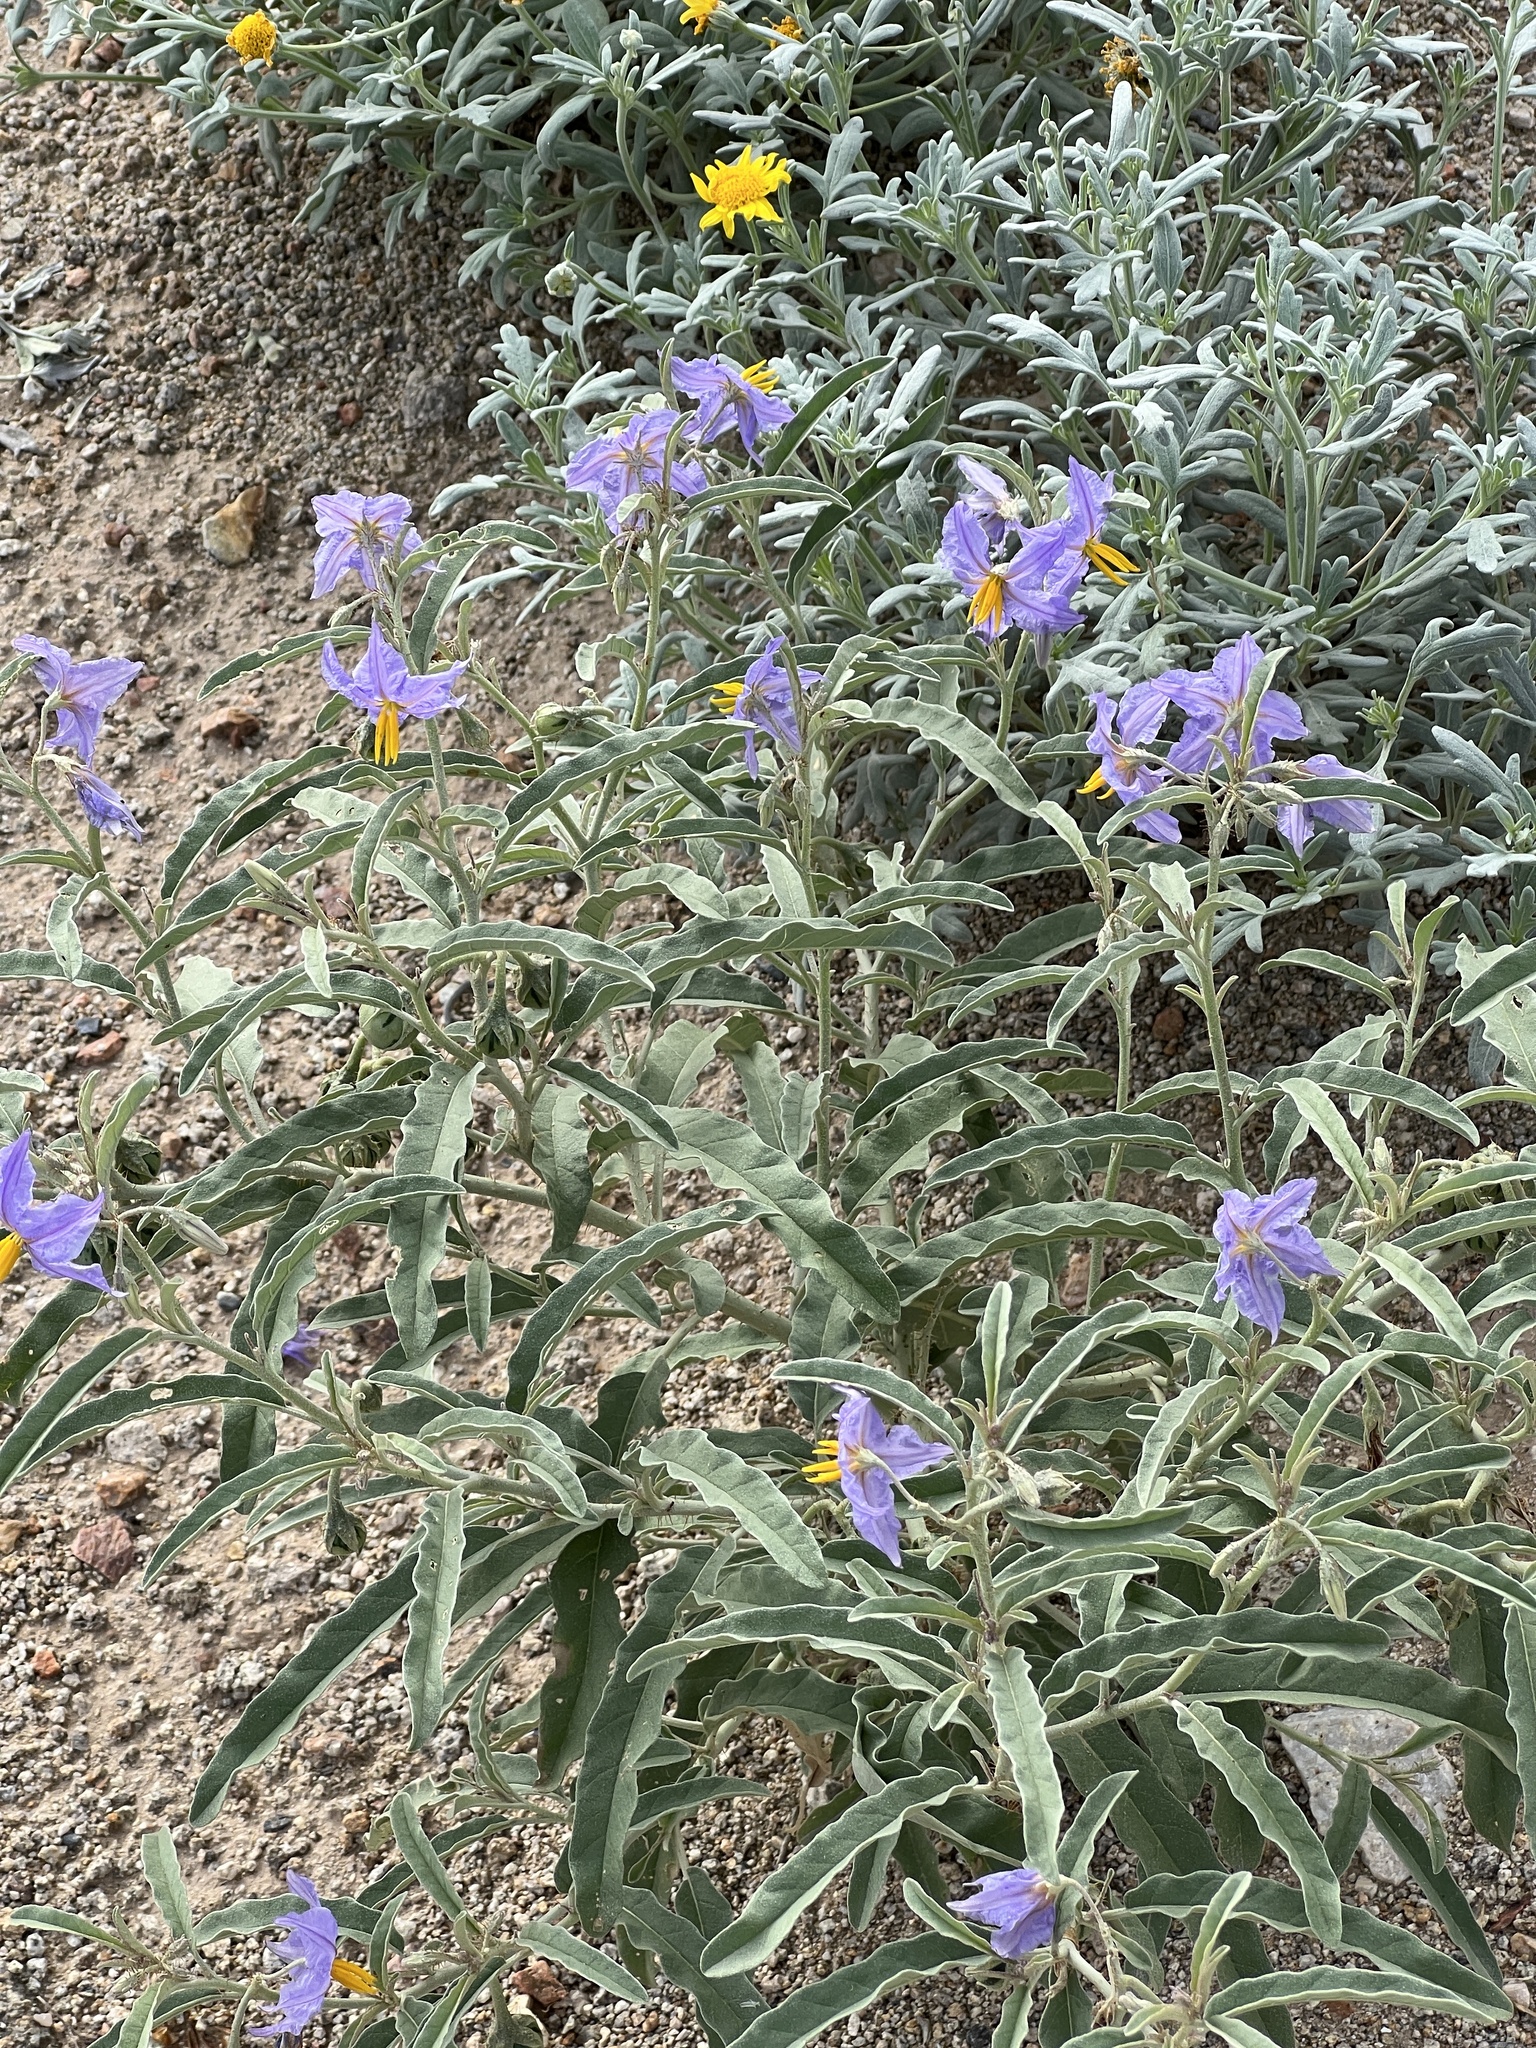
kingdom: Plantae
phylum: Tracheophyta
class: Magnoliopsida
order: Solanales
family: Solanaceae
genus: Solanum
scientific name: Solanum elaeagnifolium
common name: Silverleaf nightshade
